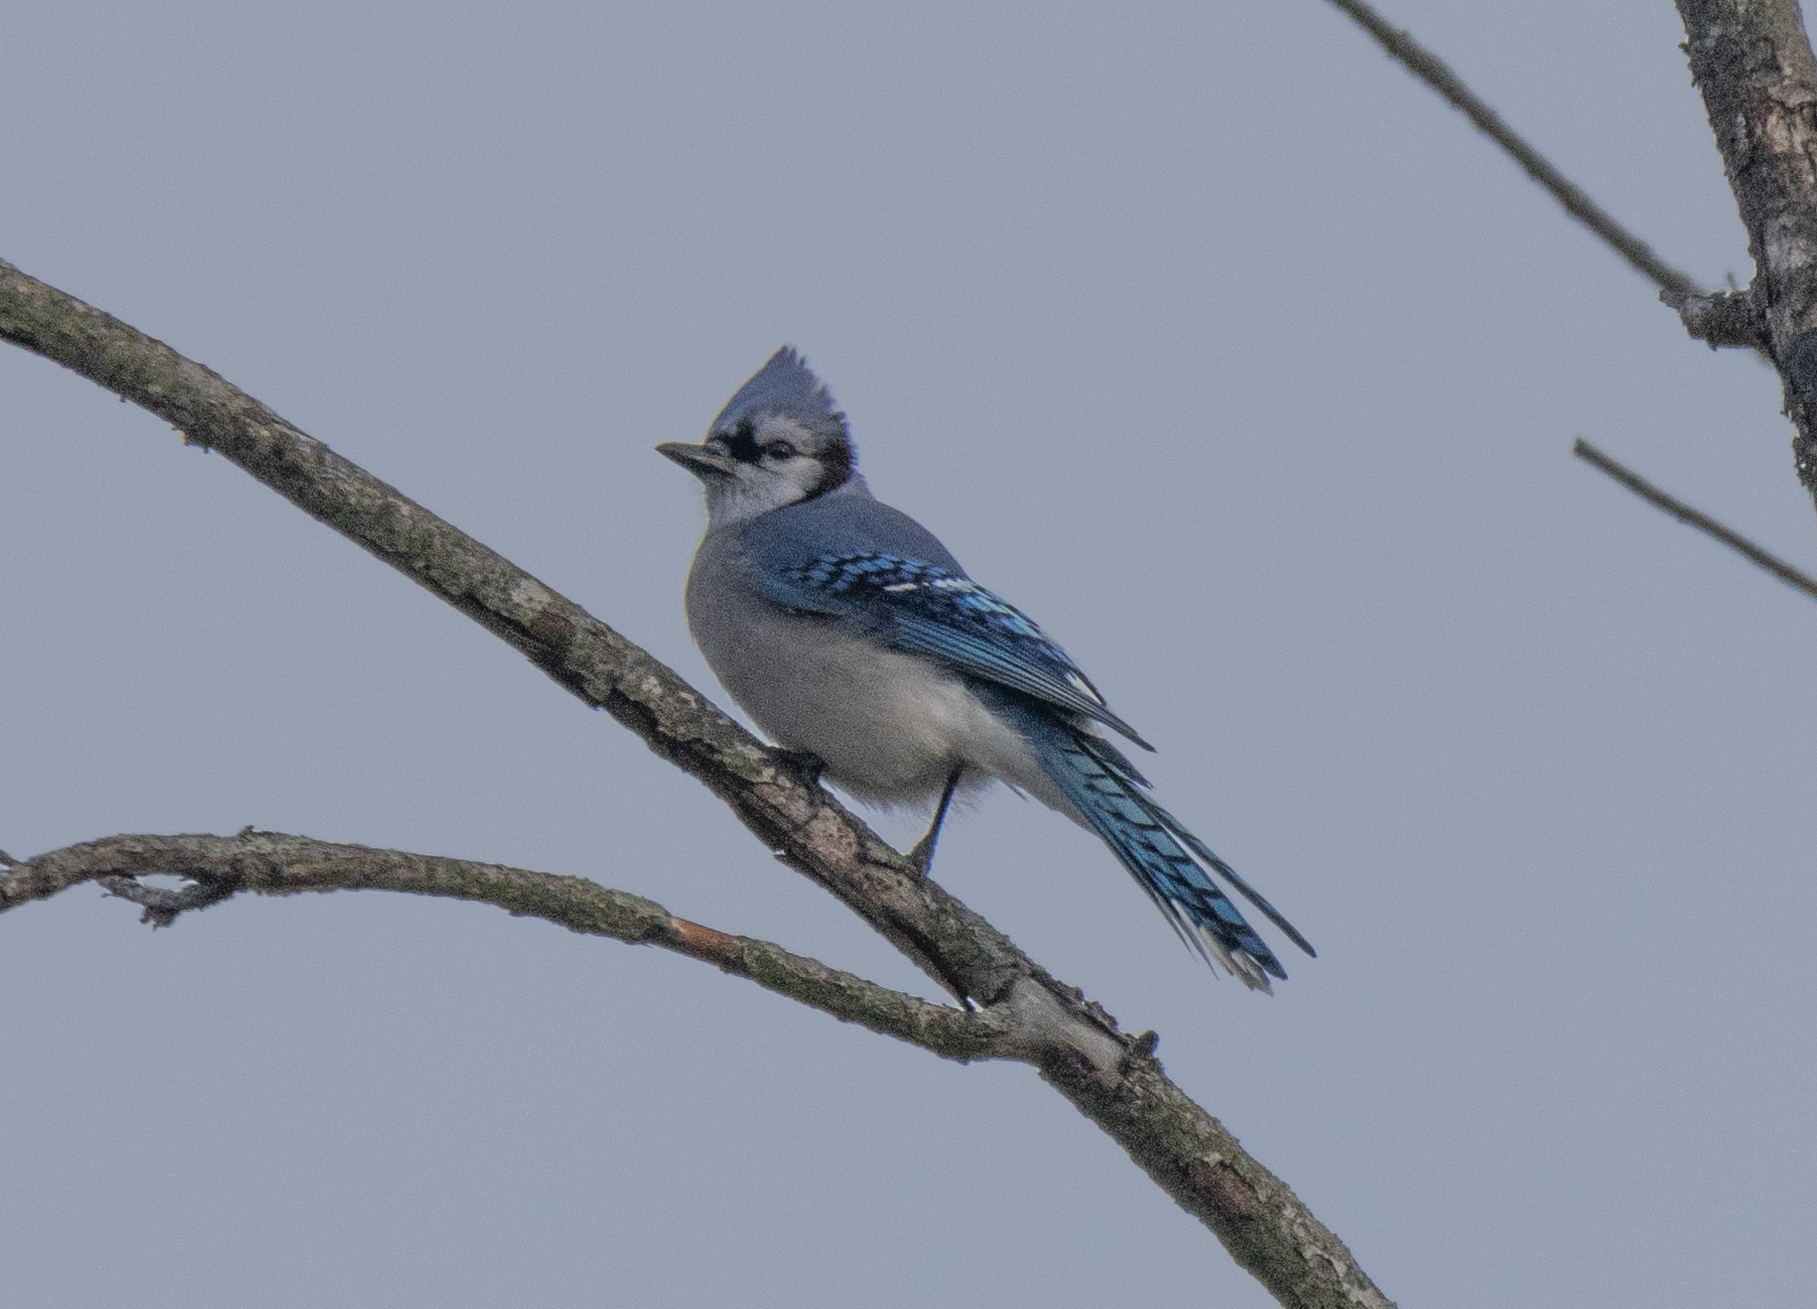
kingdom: Animalia
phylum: Chordata
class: Aves
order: Passeriformes
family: Corvidae
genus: Cyanocitta
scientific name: Cyanocitta cristata
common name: Blue jay
